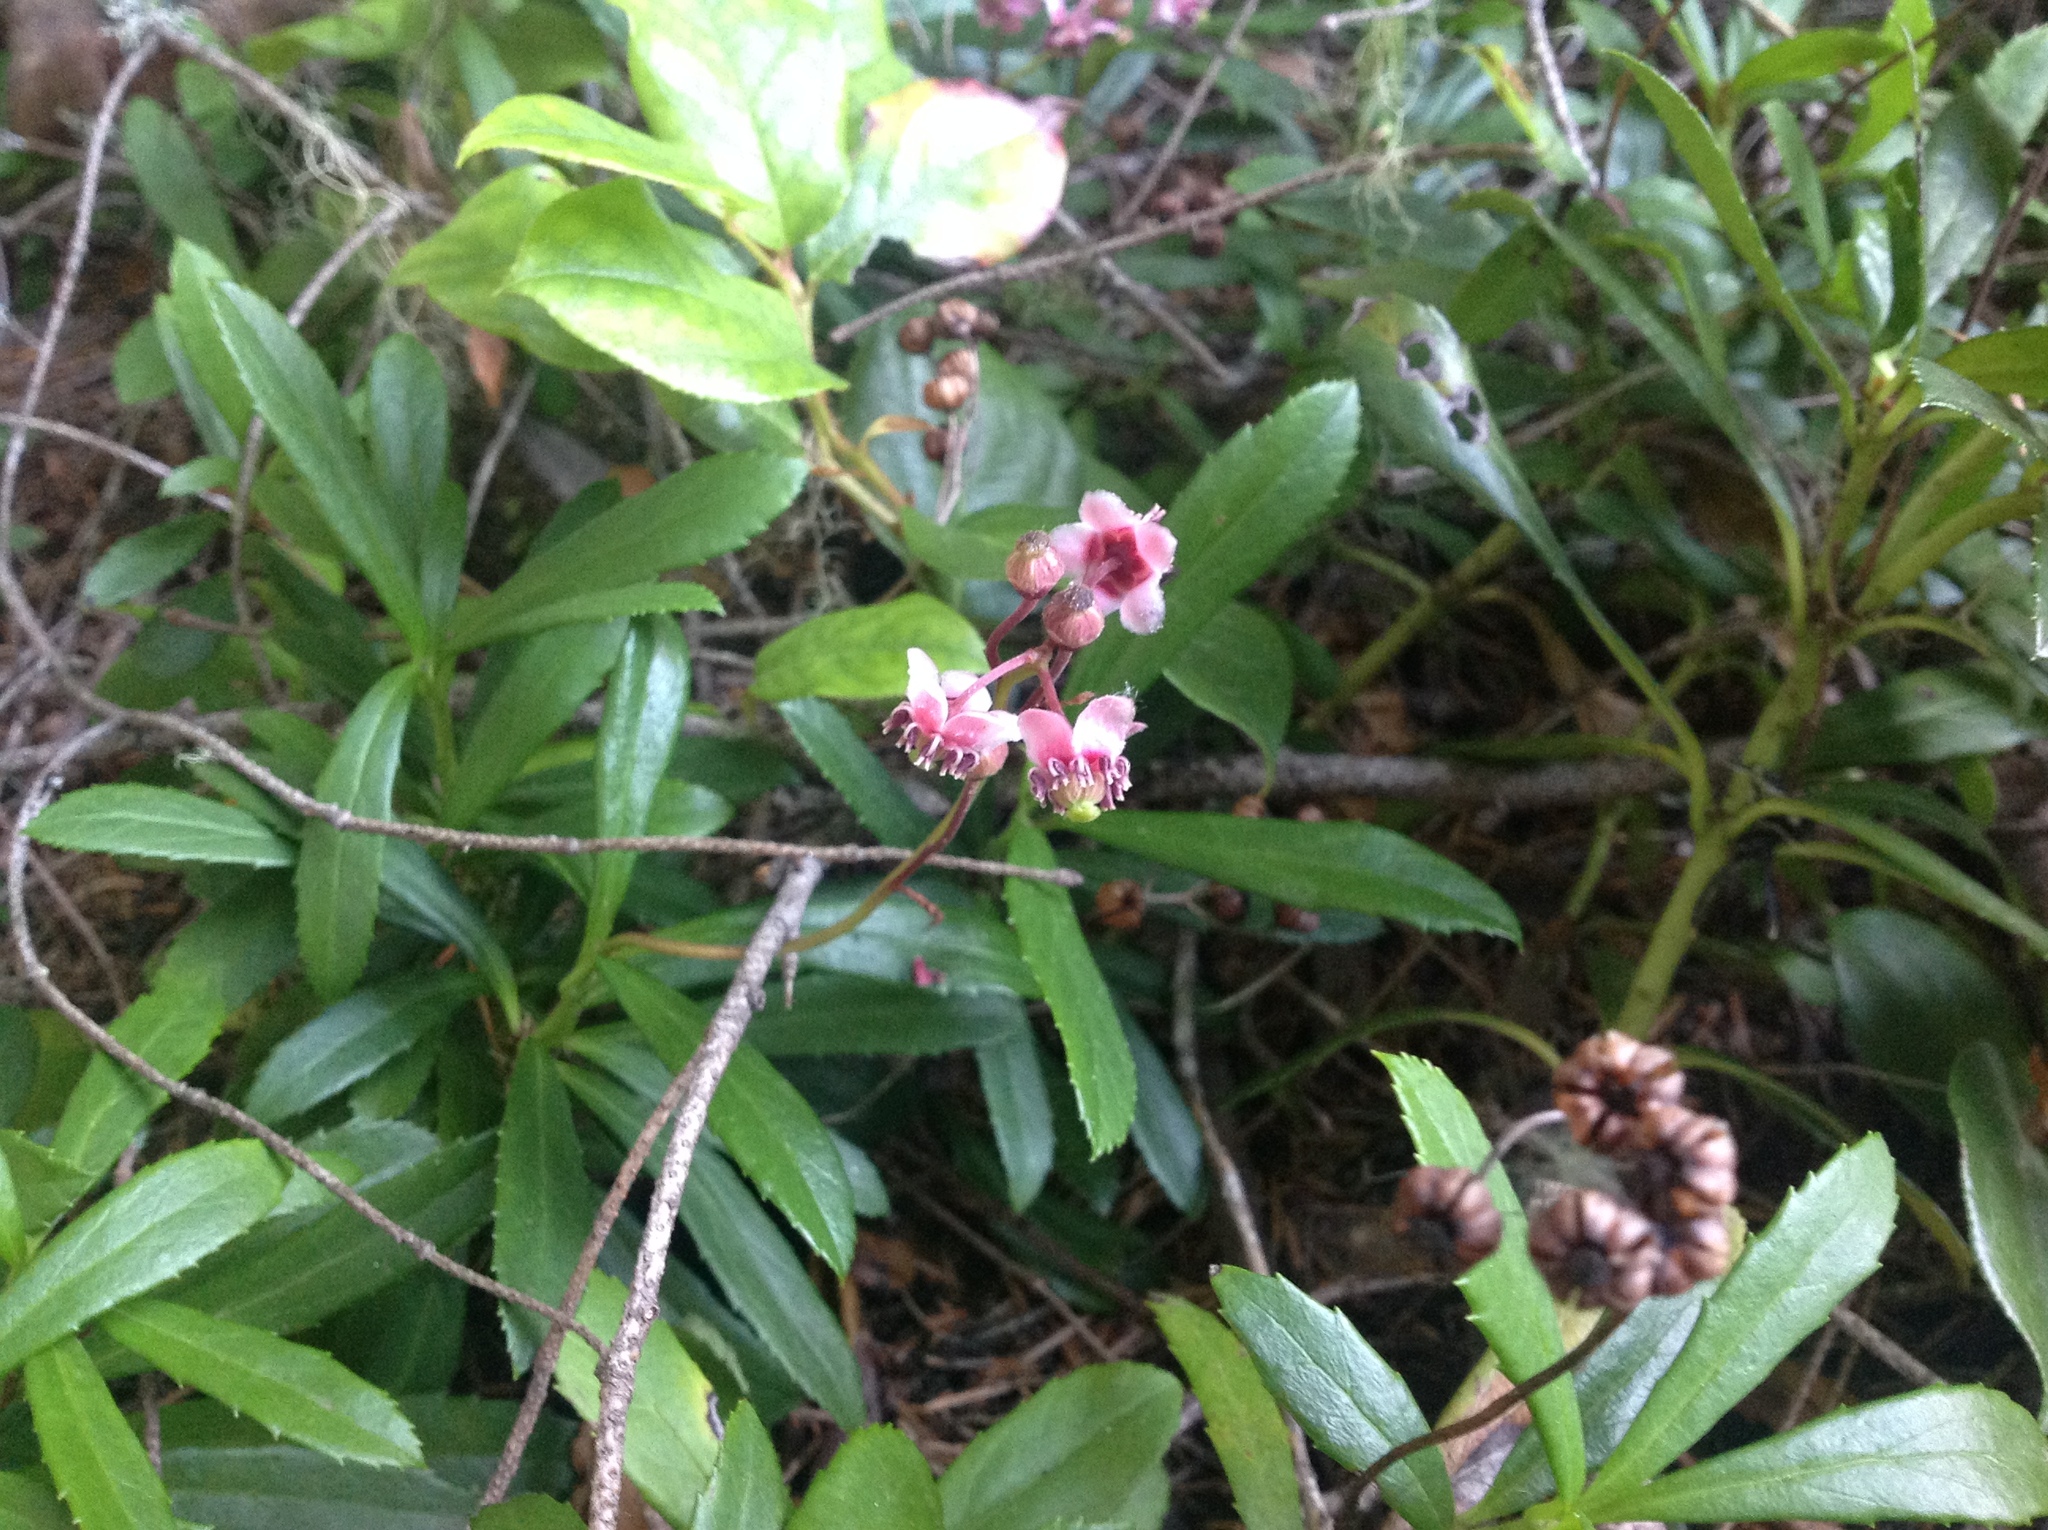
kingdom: Plantae
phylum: Tracheophyta
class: Magnoliopsida
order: Ericales
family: Ericaceae
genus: Chimaphila
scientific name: Chimaphila umbellata
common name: Pipsissewa
